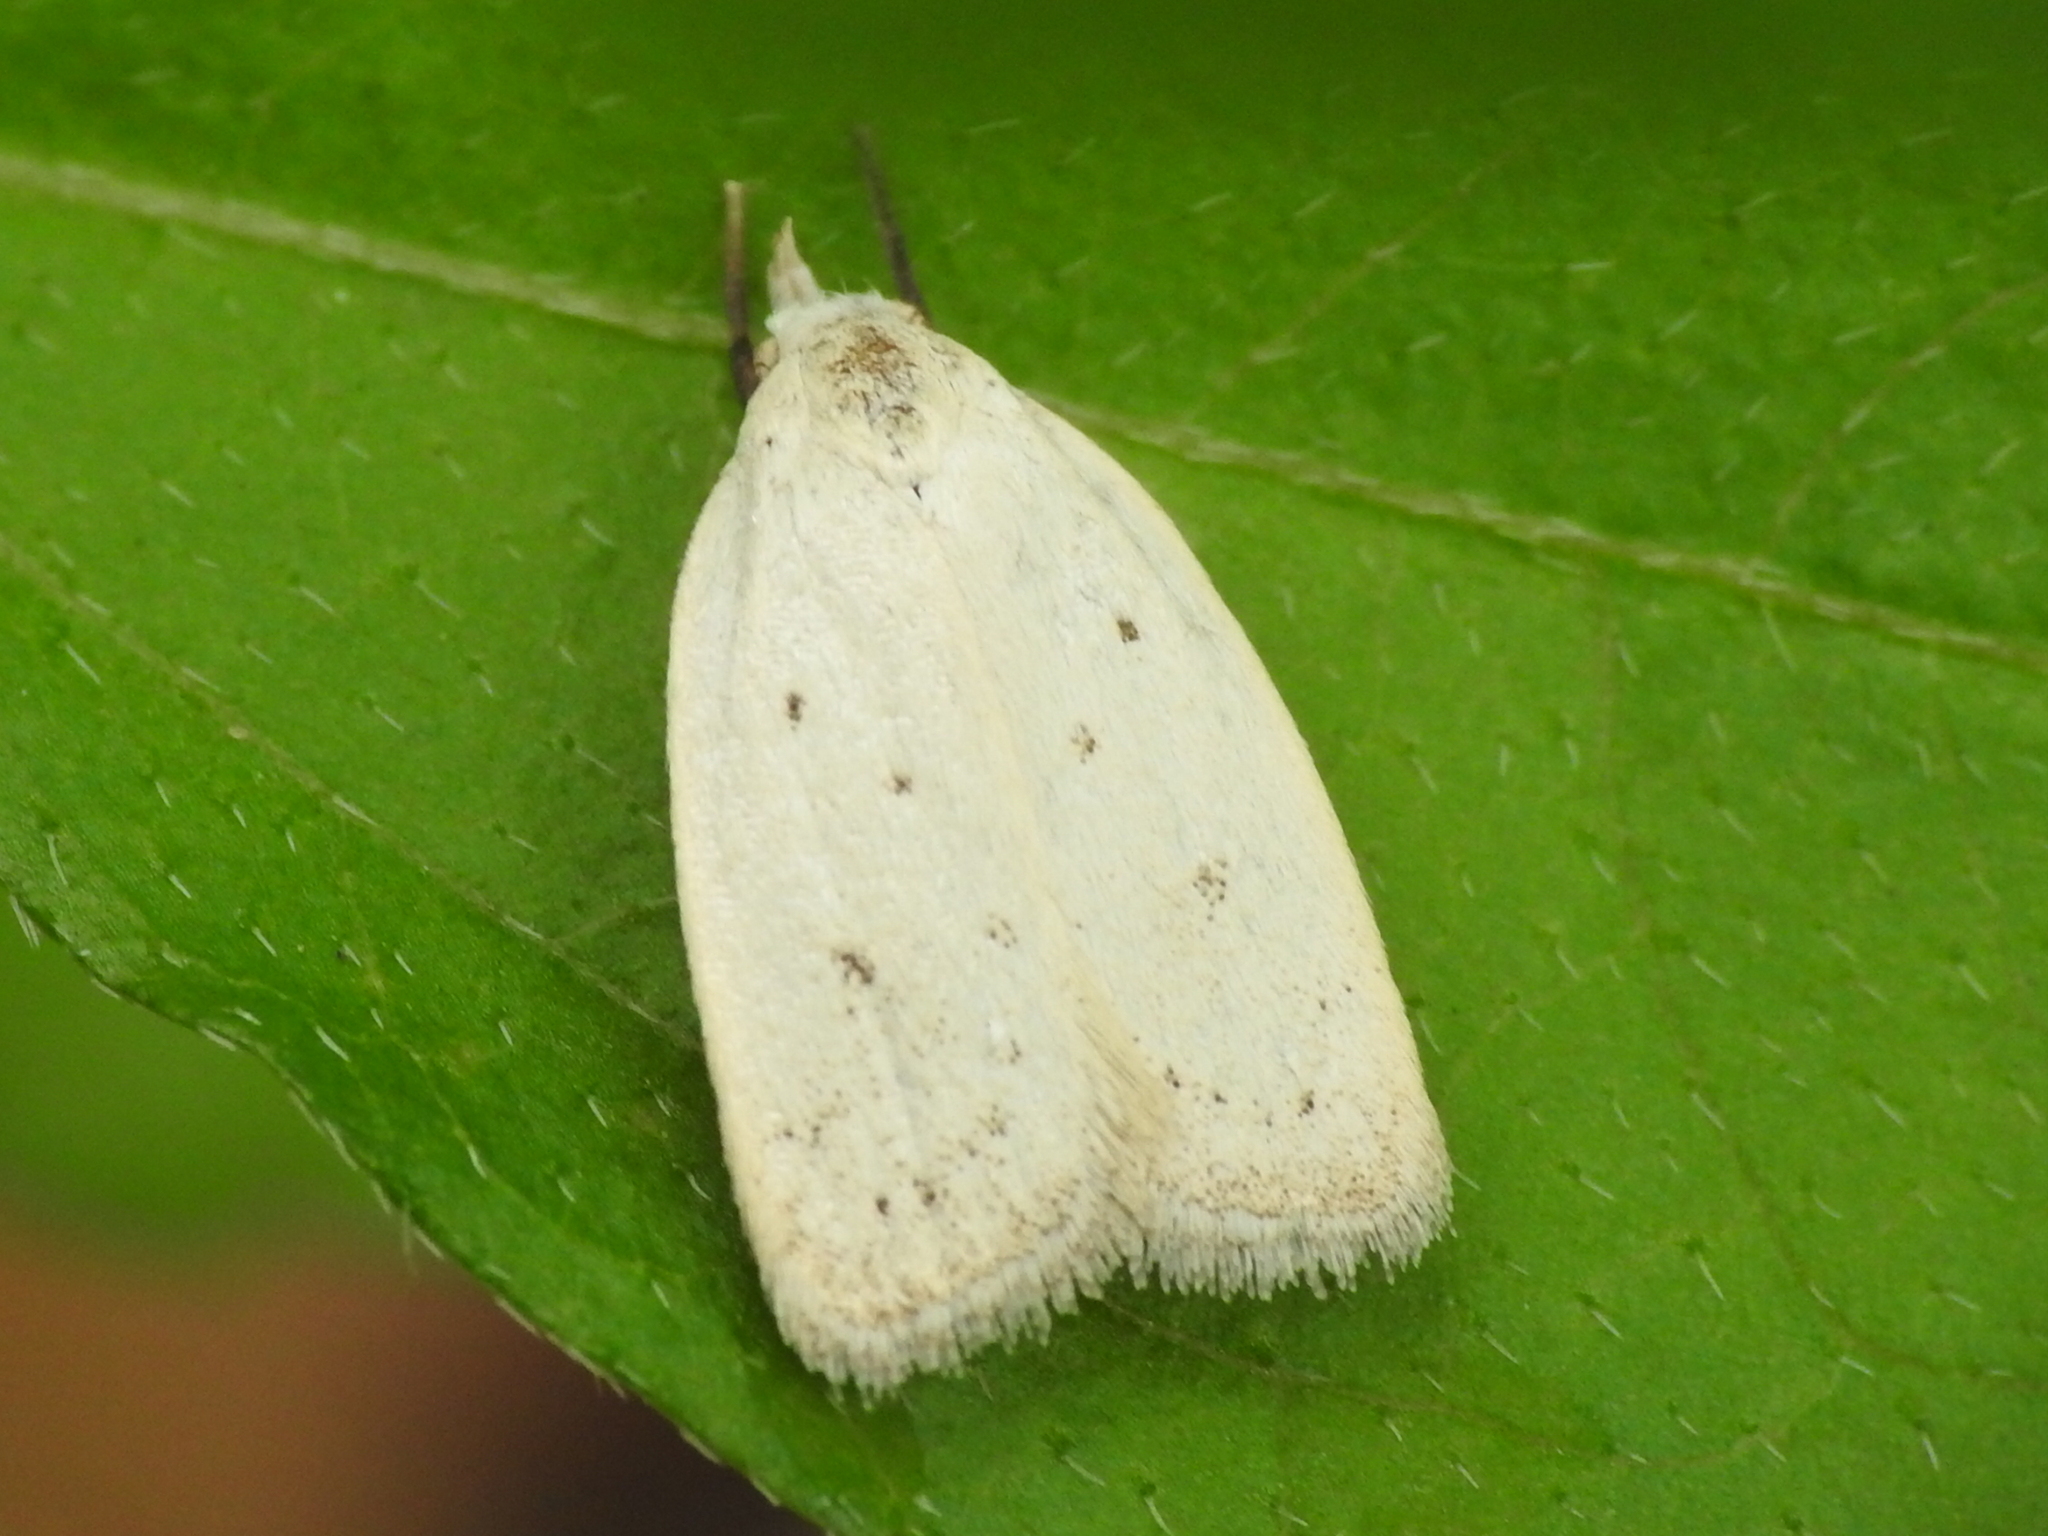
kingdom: Animalia
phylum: Arthropoda
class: Insecta
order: Lepidoptera
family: Oecophoridae
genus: Inga
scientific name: Inga cretacea
